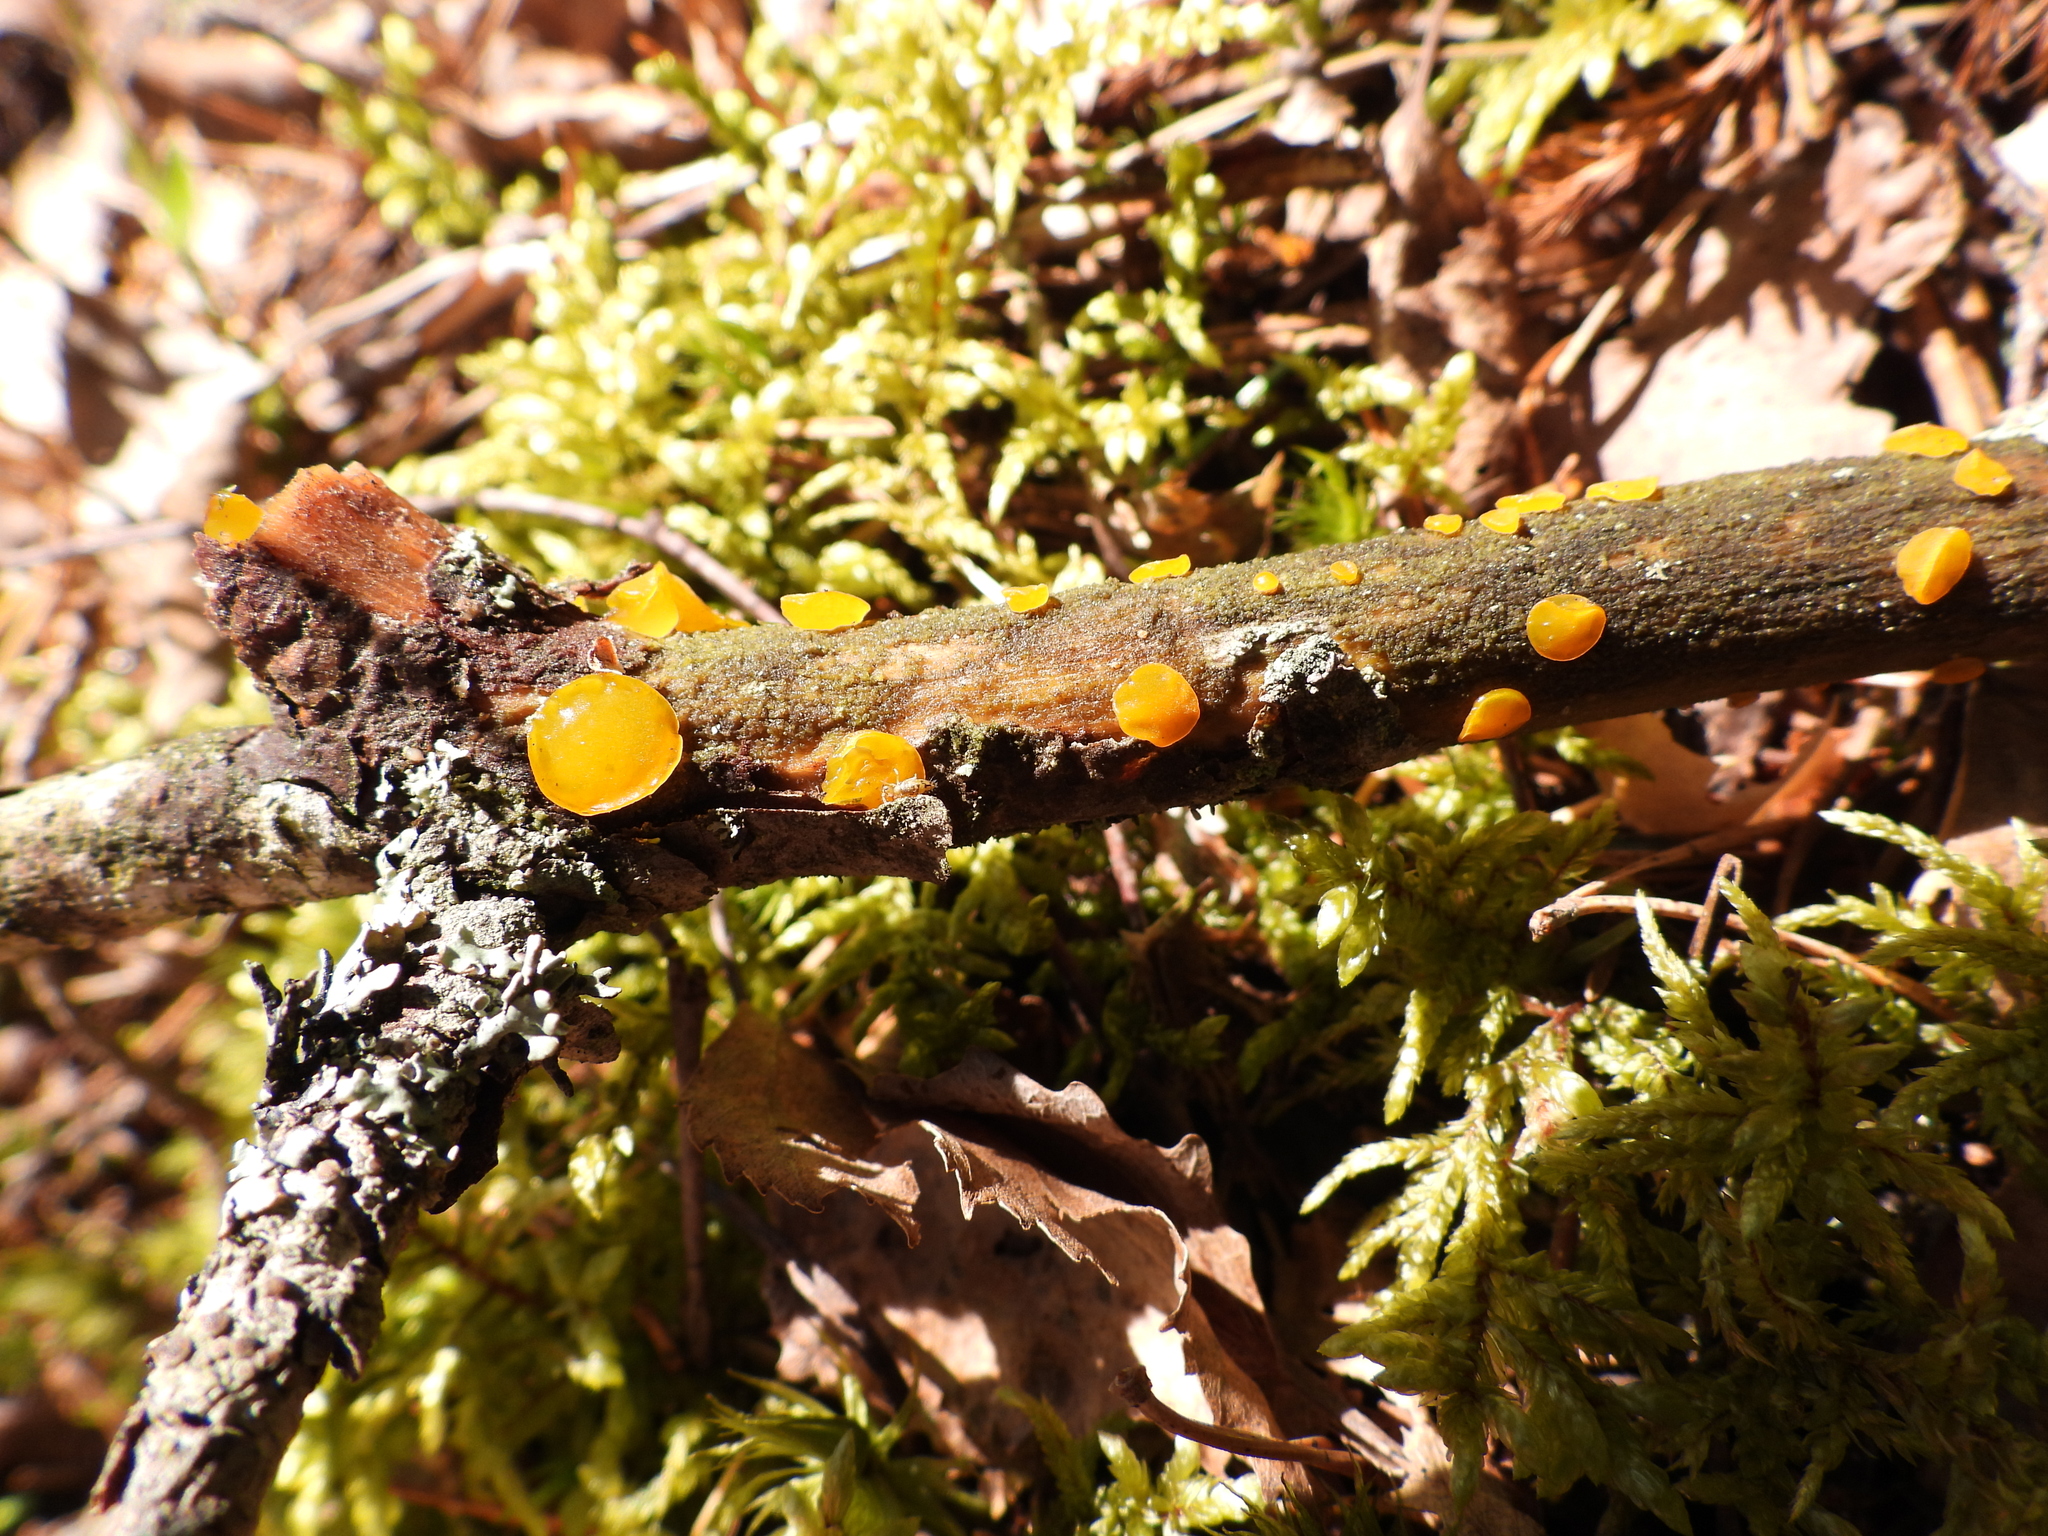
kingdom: Fungi
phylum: Basidiomycota
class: Dacrymycetes
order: Dacrymycetales
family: Dacrymycetaceae
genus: Dacrymyces
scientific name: Dacrymyces microsporus
